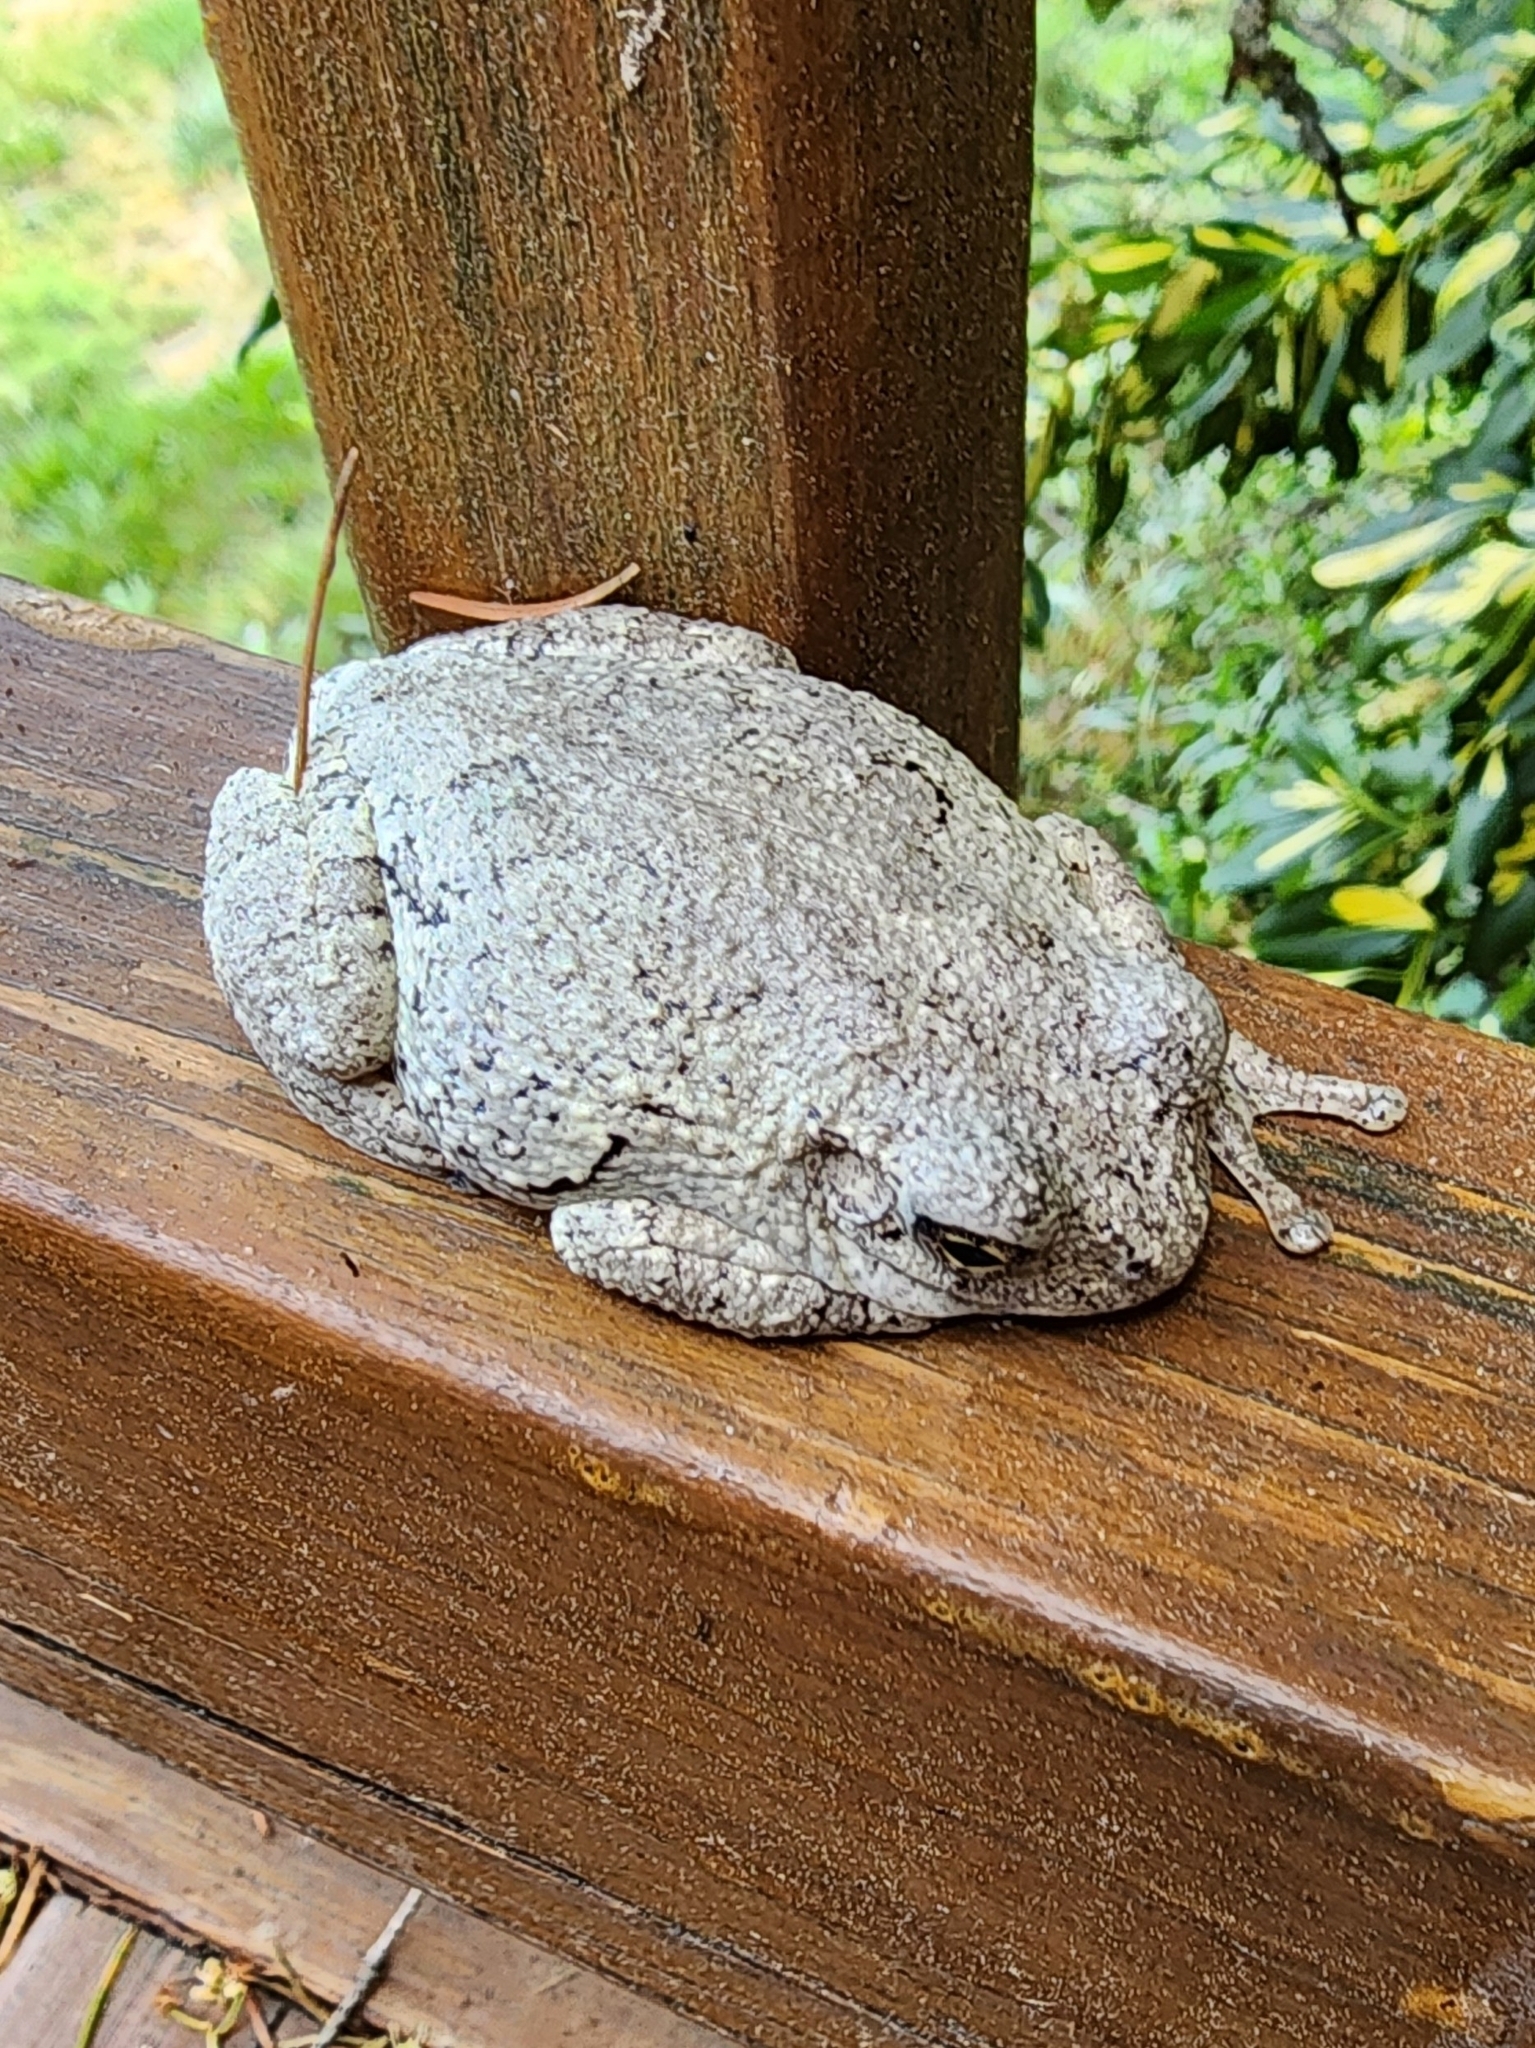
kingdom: Animalia
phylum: Chordata
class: Amphibia
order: Anura
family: Hylidae
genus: Hyla
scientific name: Hyla
